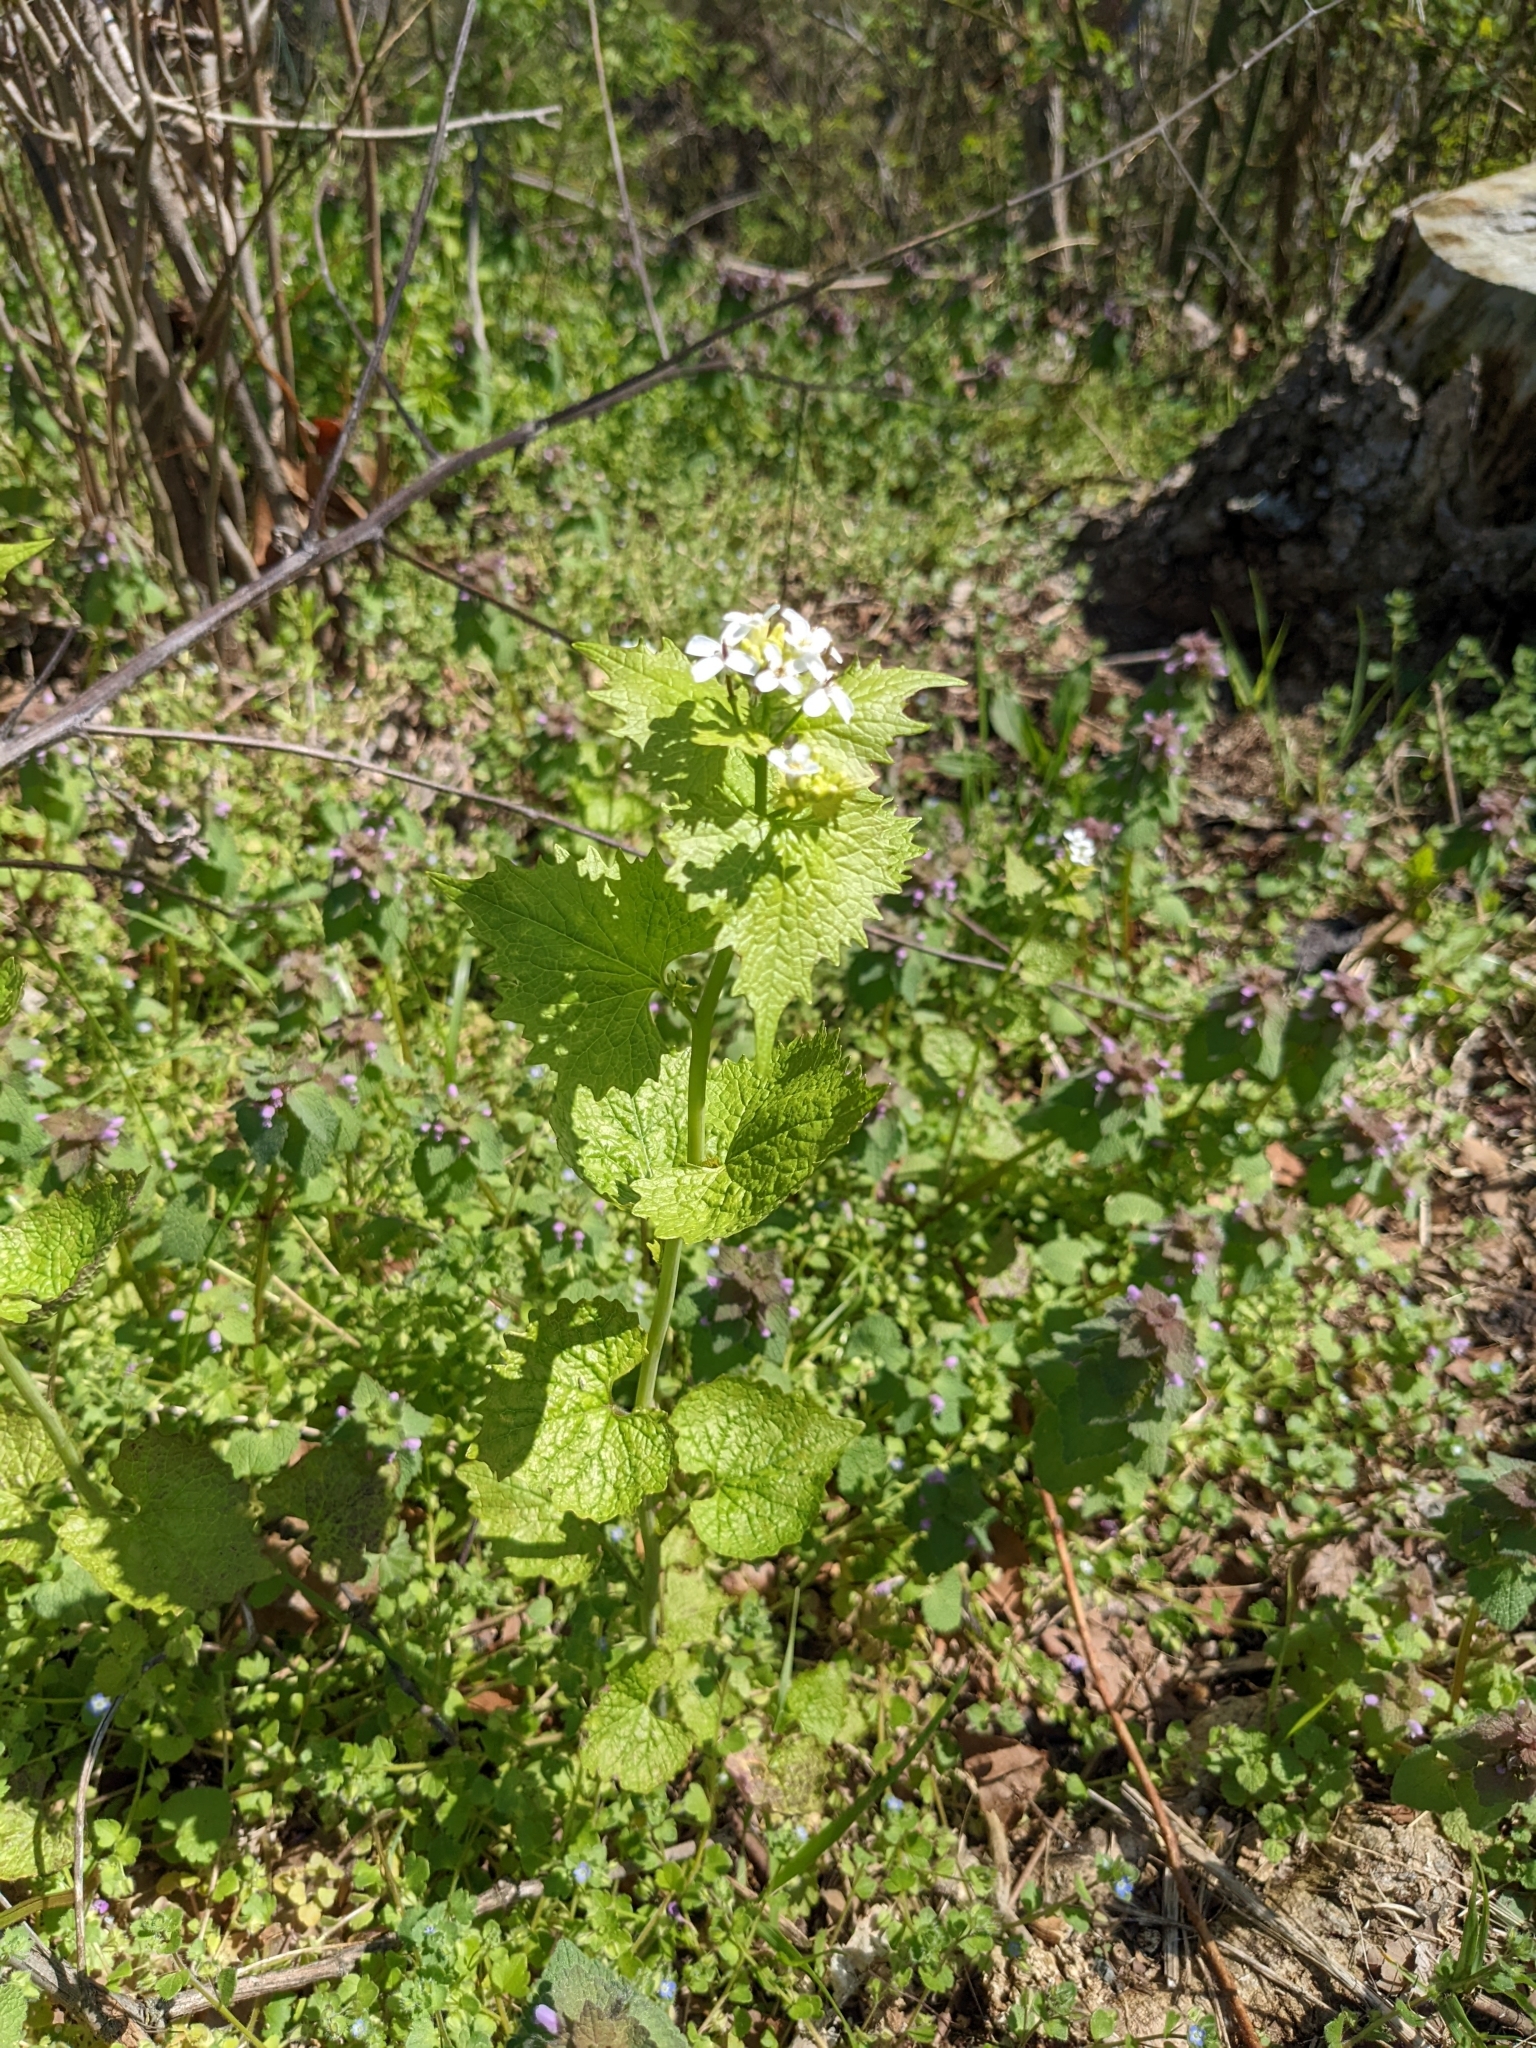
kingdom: Plantae
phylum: Tracheophyta
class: Magnoliopsida
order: Brassicales
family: Brassicaceae
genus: Alliaria
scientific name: Alliaria petiolata
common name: Garlic mustard
